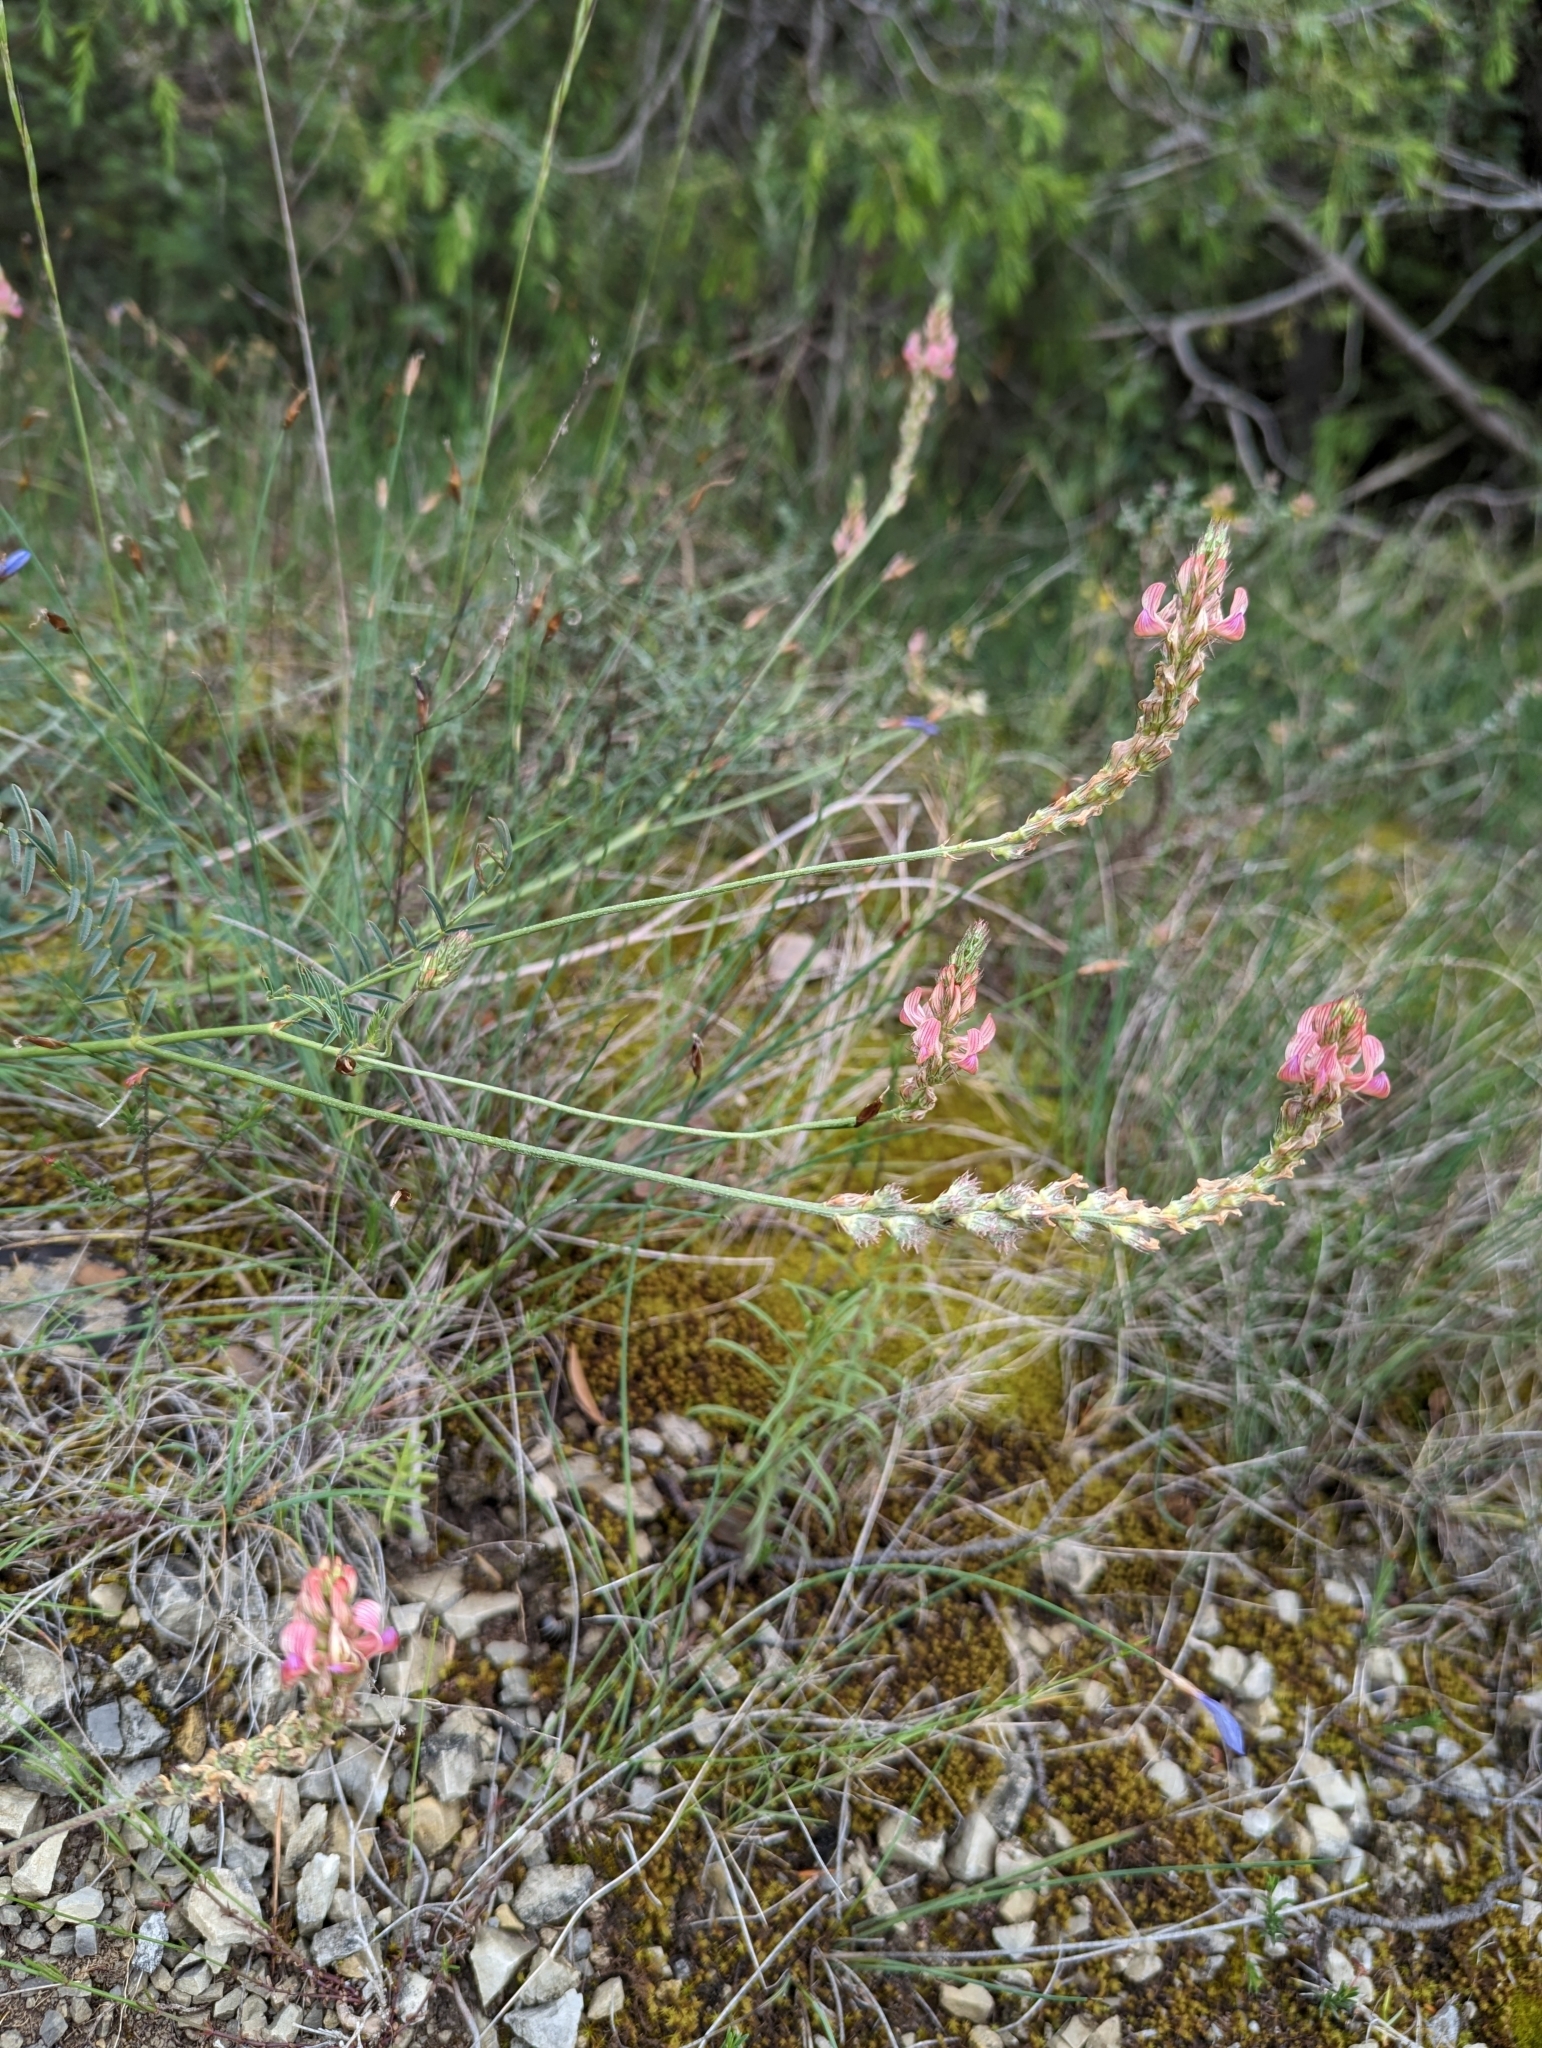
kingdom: Plantae
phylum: Tracheophyta
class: Magnoliopsida
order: Fabales
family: Fabaceae
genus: Onobrychis
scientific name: Onobrychis supina
